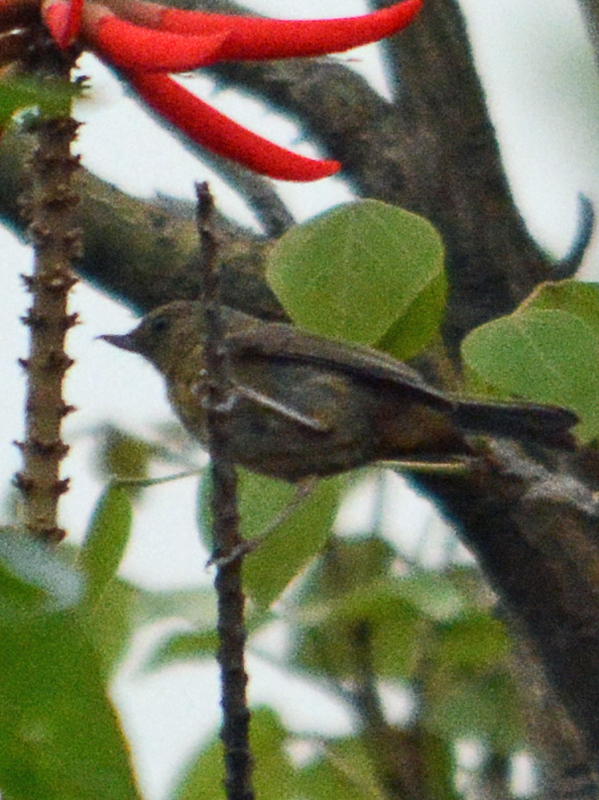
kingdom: Animalia
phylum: Chordata
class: Aves
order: Passeriformes
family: Thraupidae
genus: Diglossa
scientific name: Diglossa baritula
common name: Cinnamon-bellied flowerpiercer
